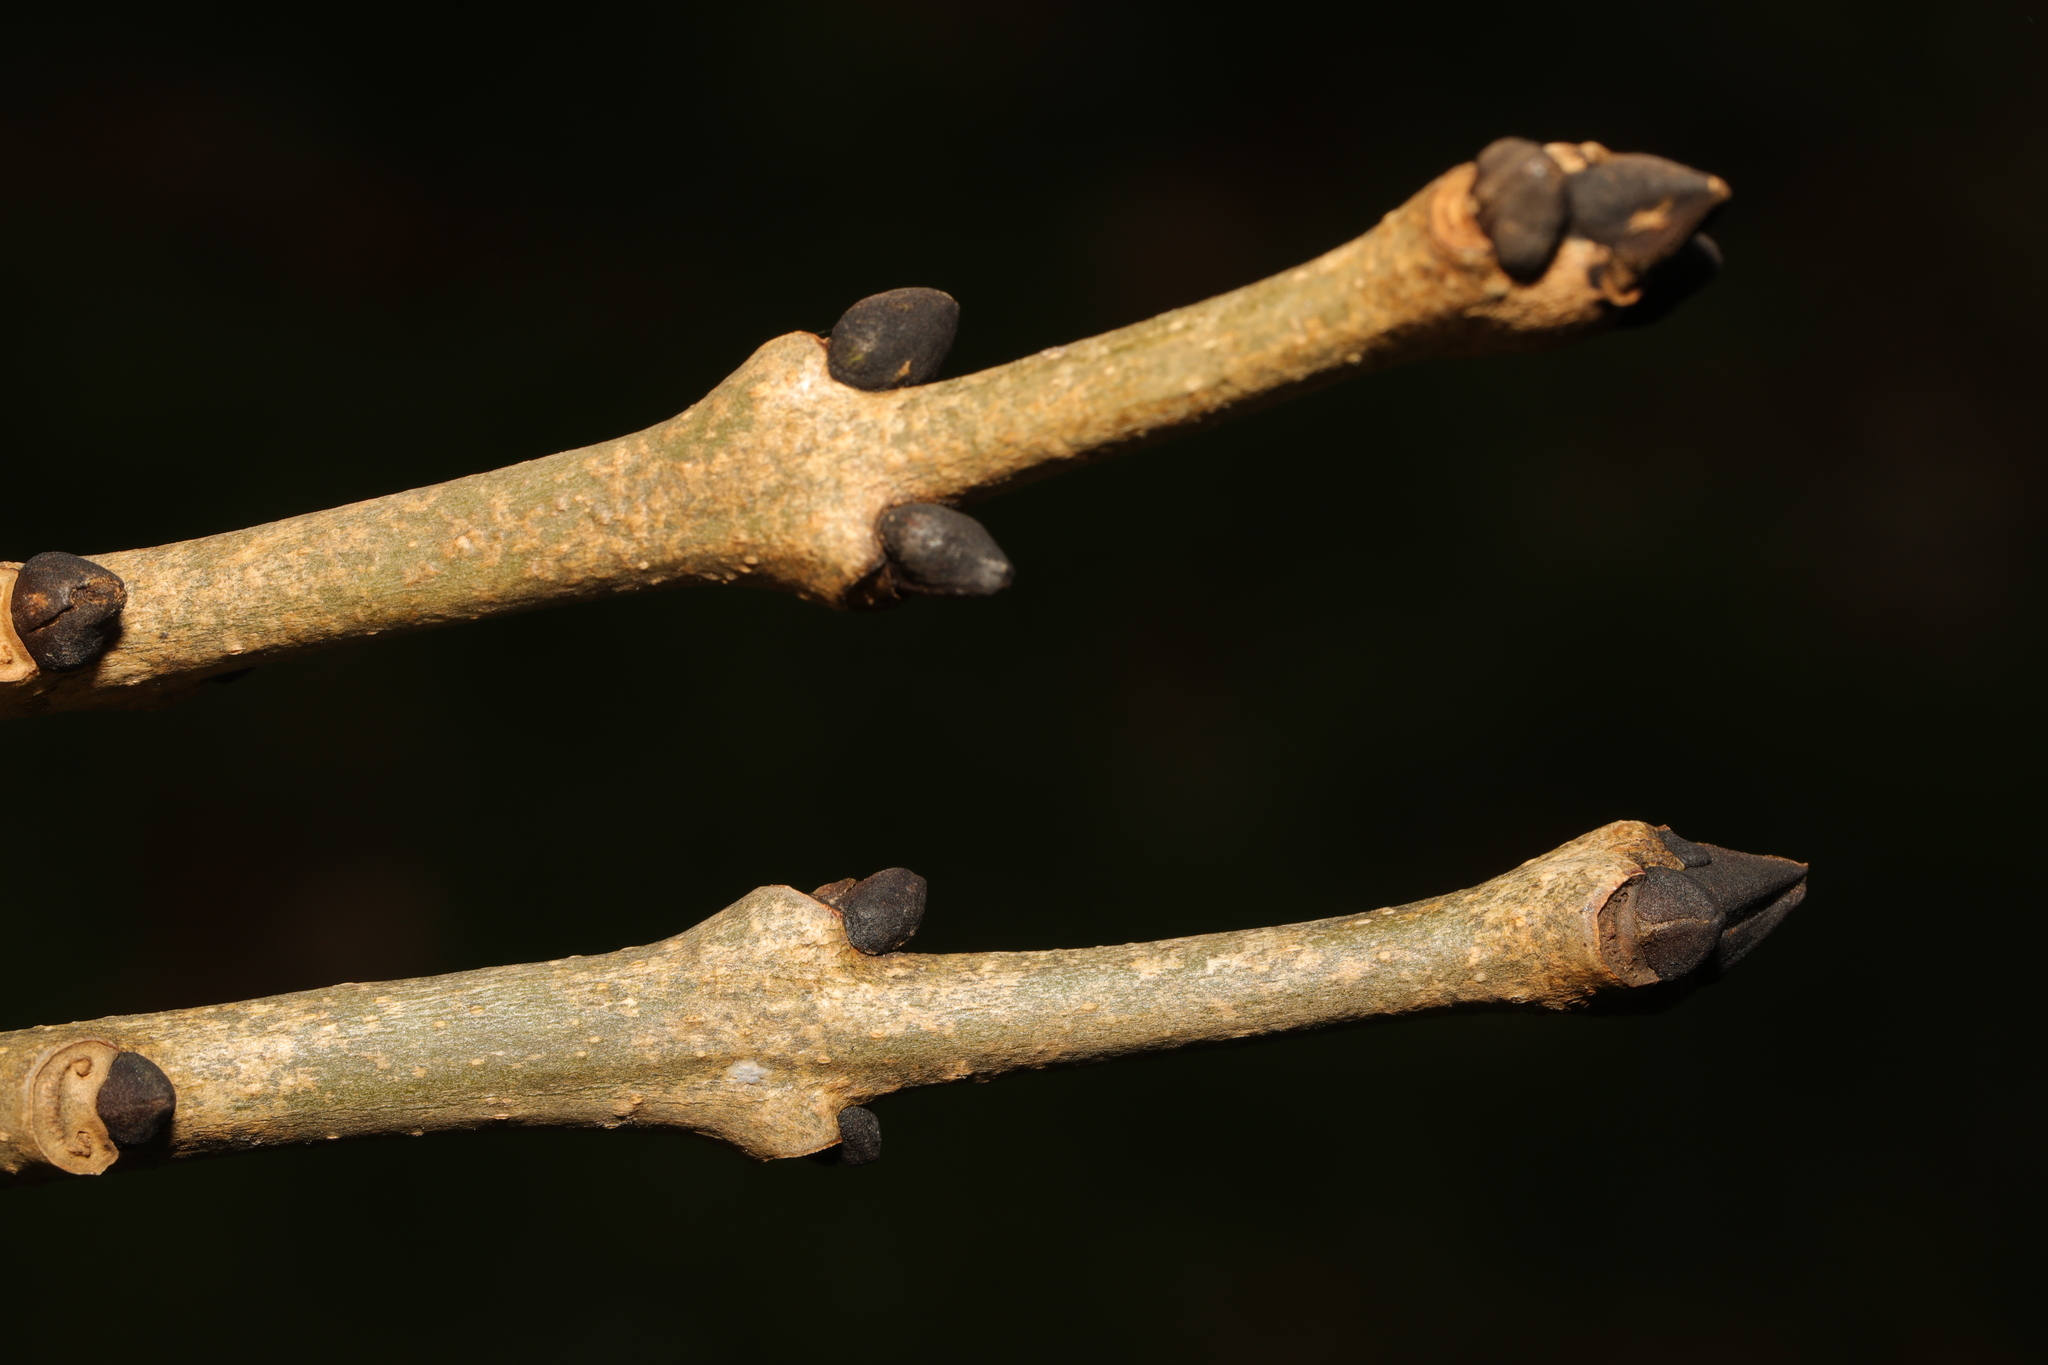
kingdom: Plantae
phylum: Tracheophyta
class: Magnoliopsida
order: Lamiales
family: Oleaceae
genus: Fraxinus
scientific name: Fraxinus excelsior
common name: European ash
